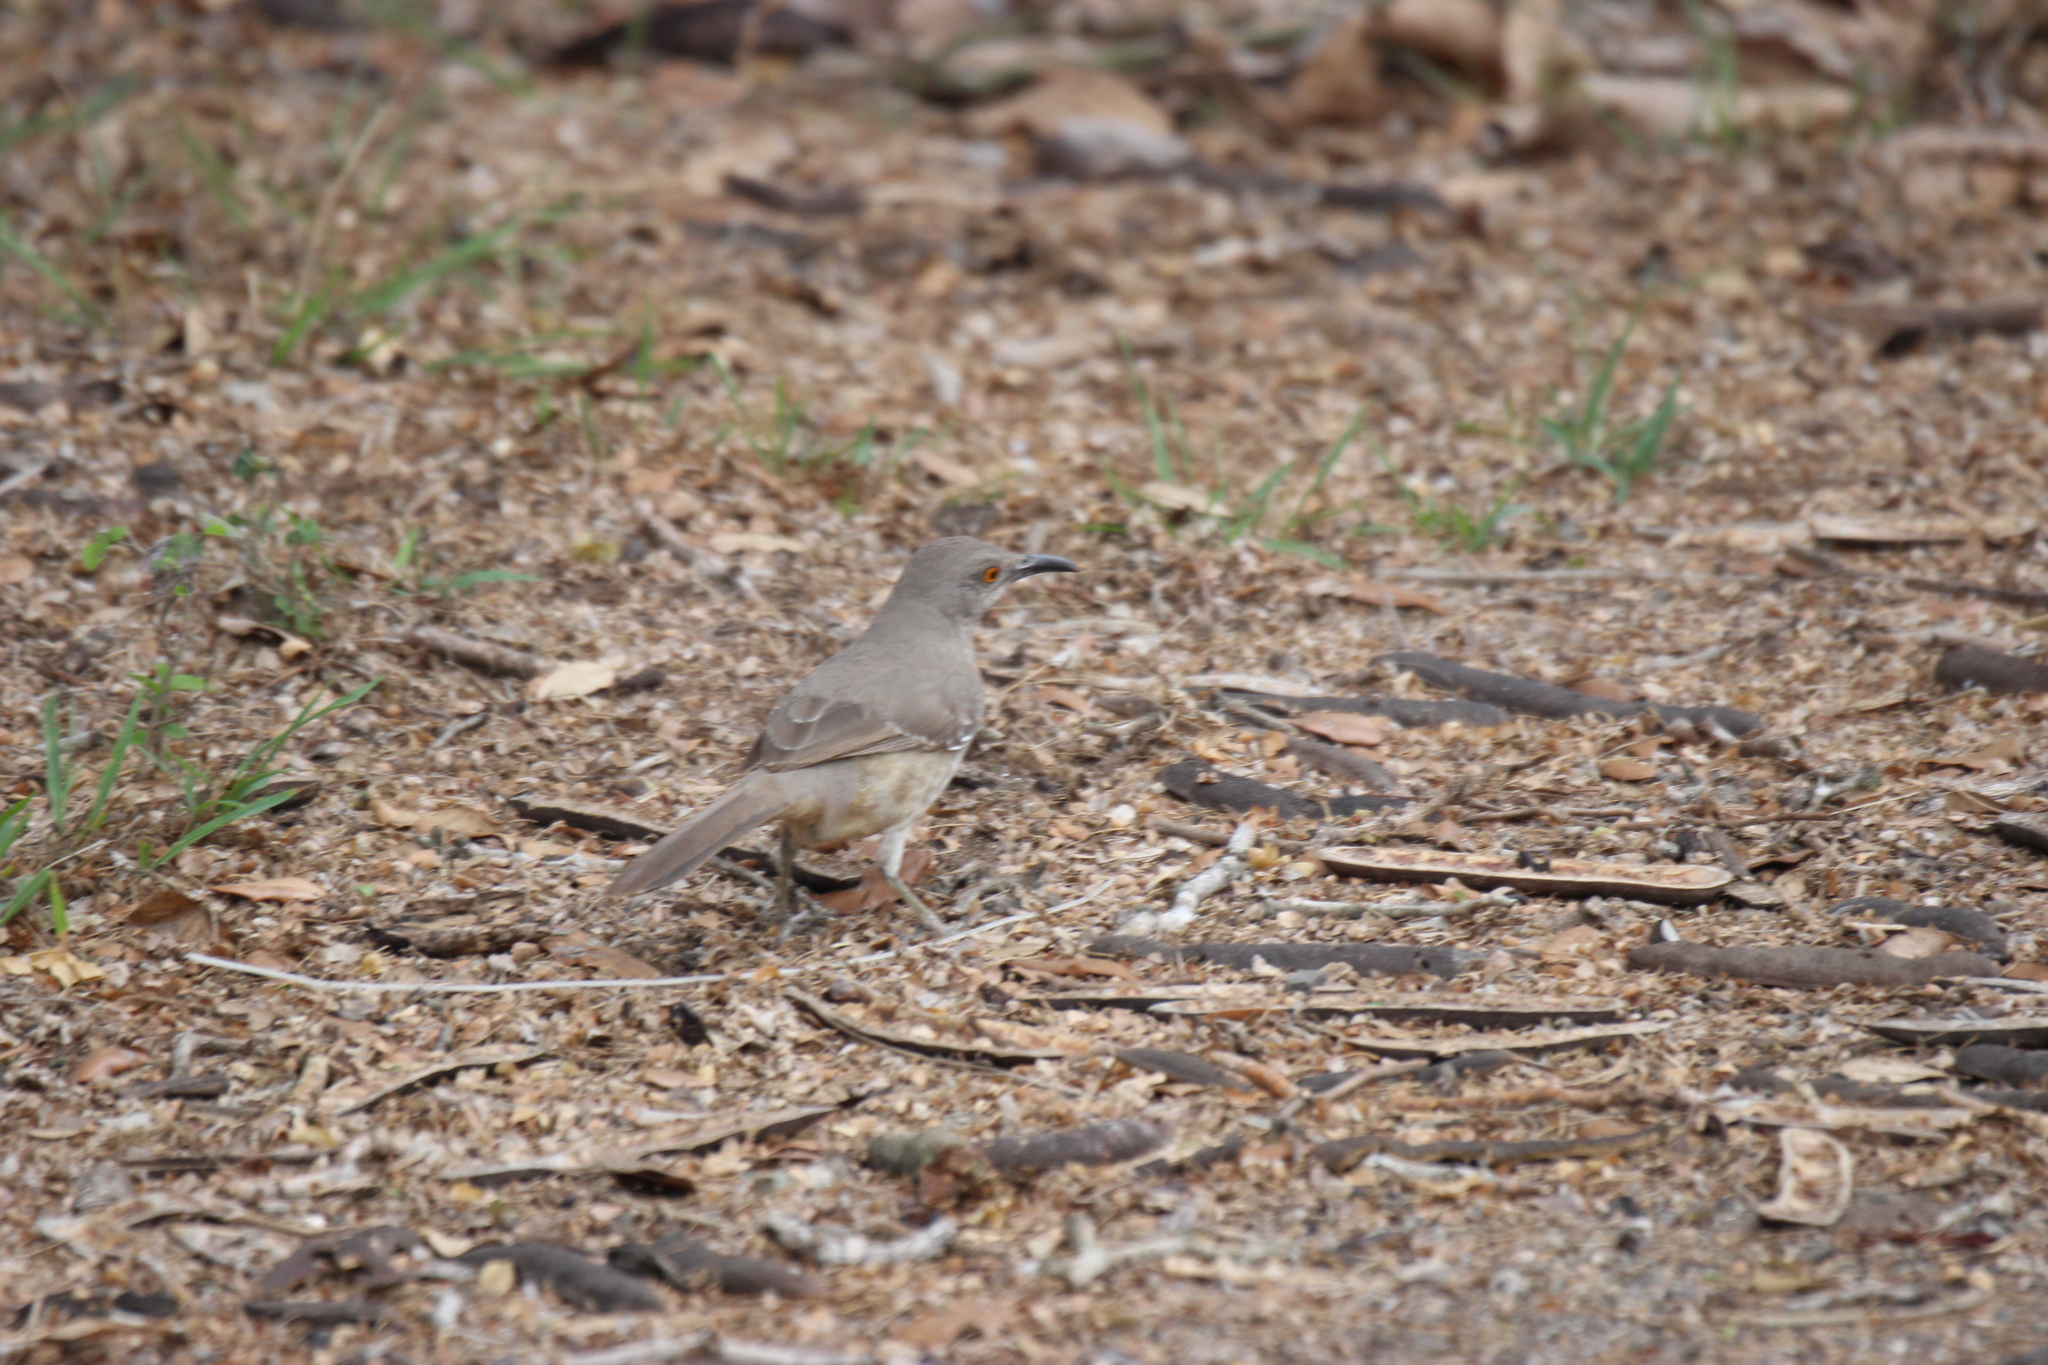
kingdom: Animalia
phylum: Chordata
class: Aves
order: Passeriformes
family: Mimidae
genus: Toxostoma
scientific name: Toxostoma curvirostre
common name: Curve-billed thrasher
